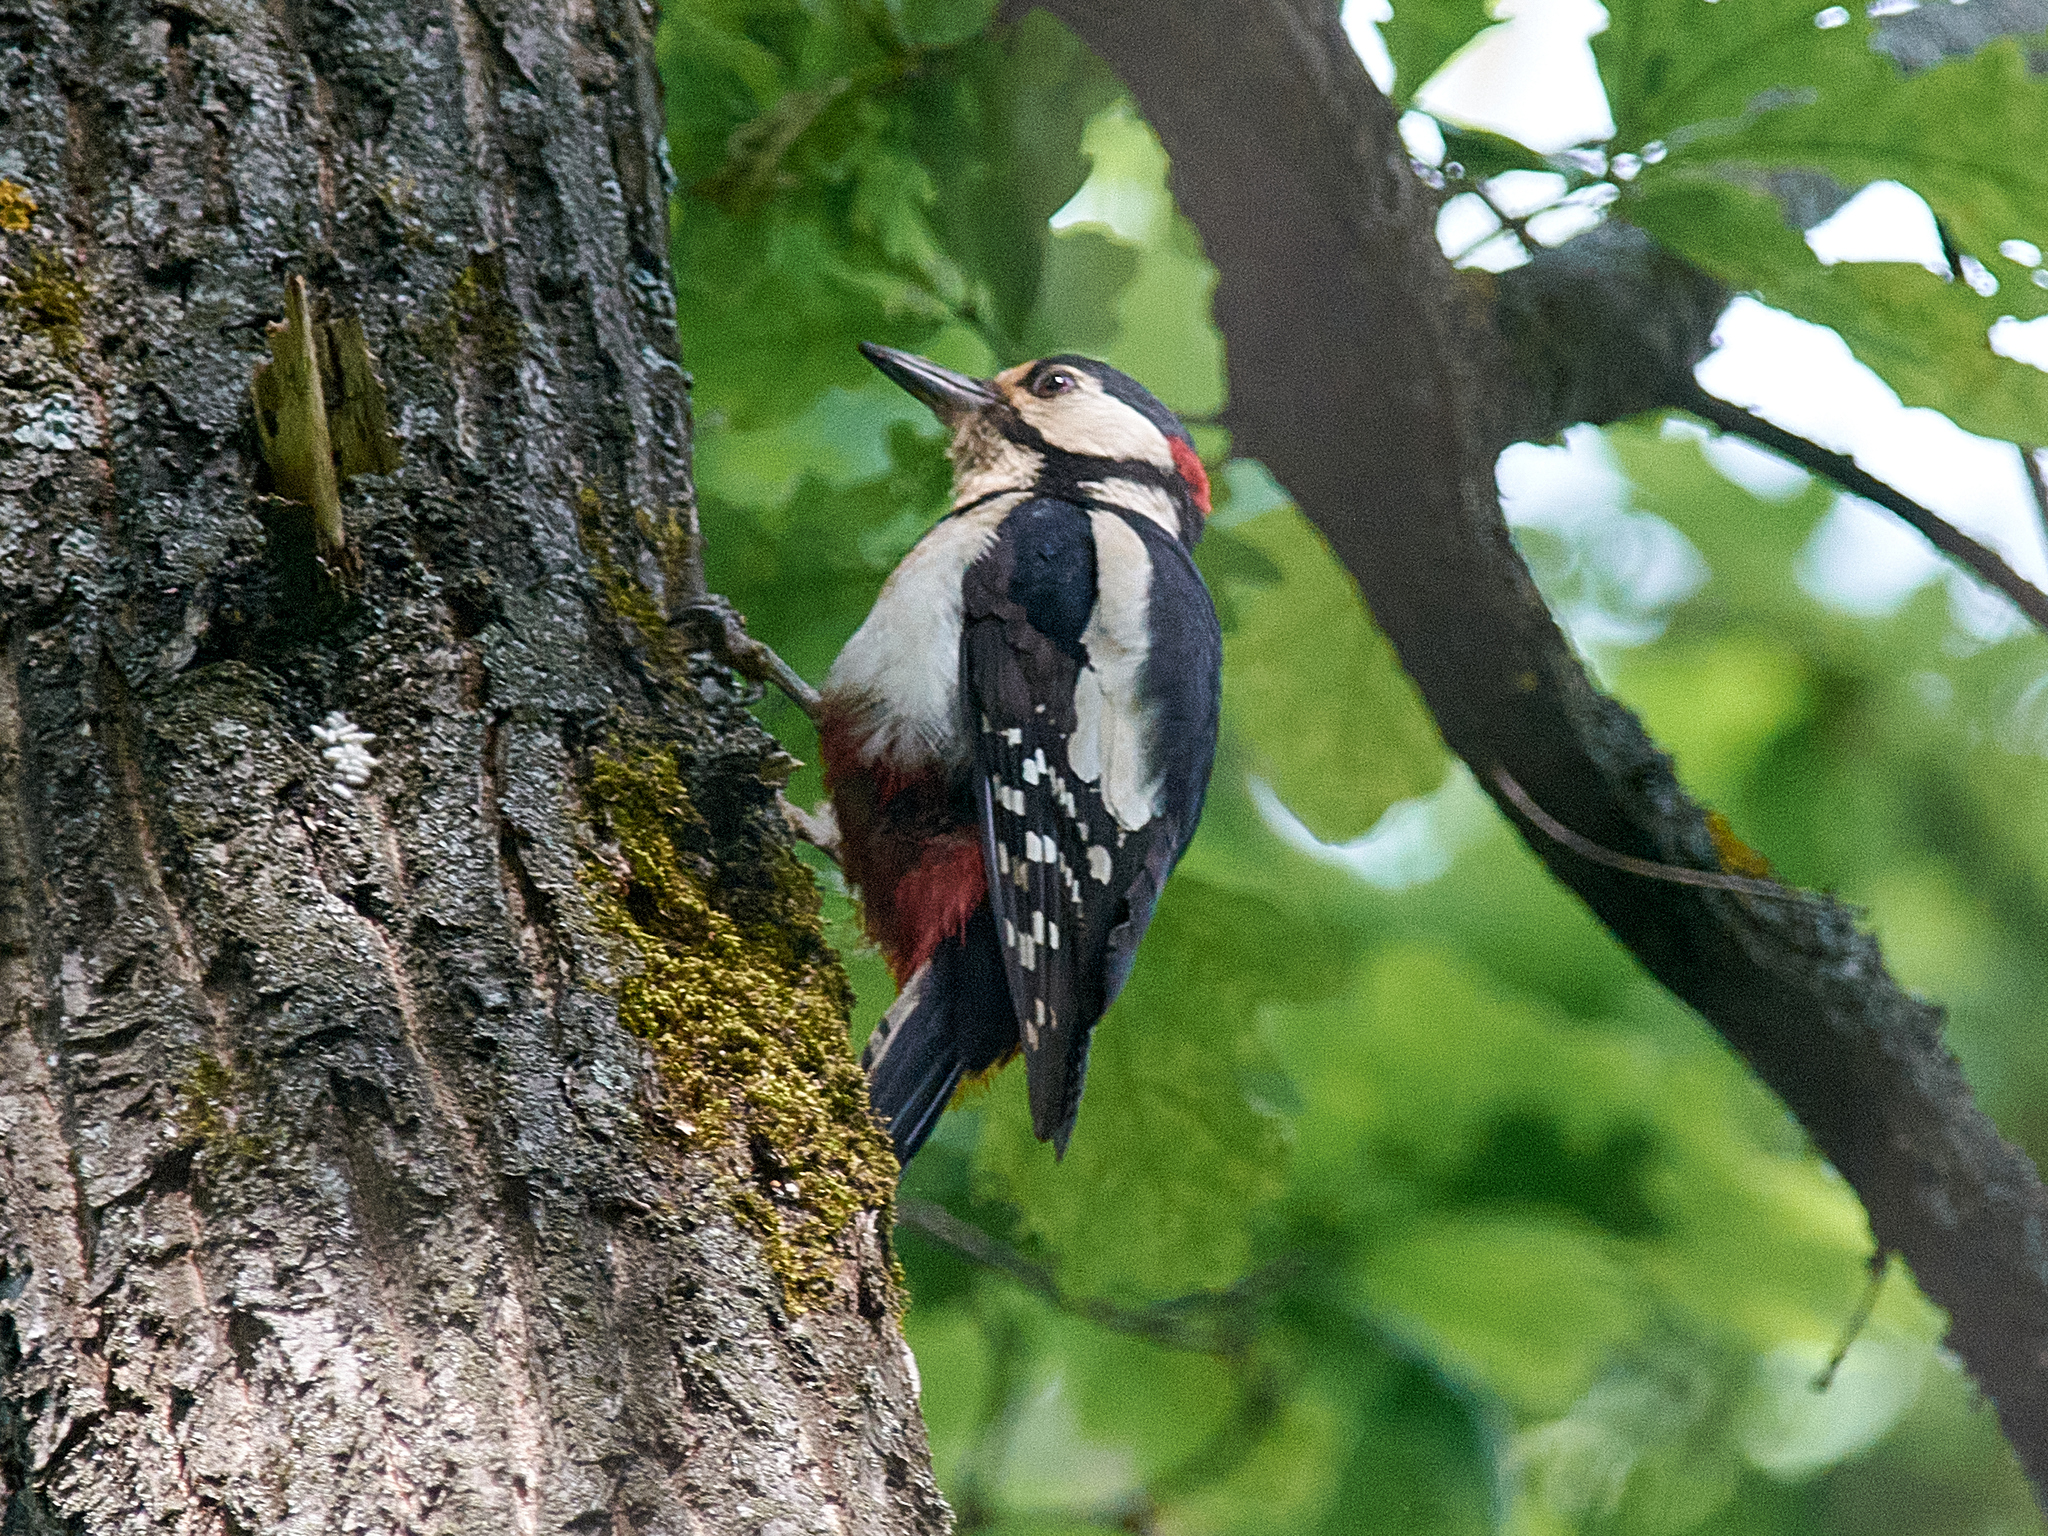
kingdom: Animalia
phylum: Chordata
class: Aves
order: Piciformes
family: Picidae
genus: Dendrocopos
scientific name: Dendrocopos major
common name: Great spotted woodpecker
